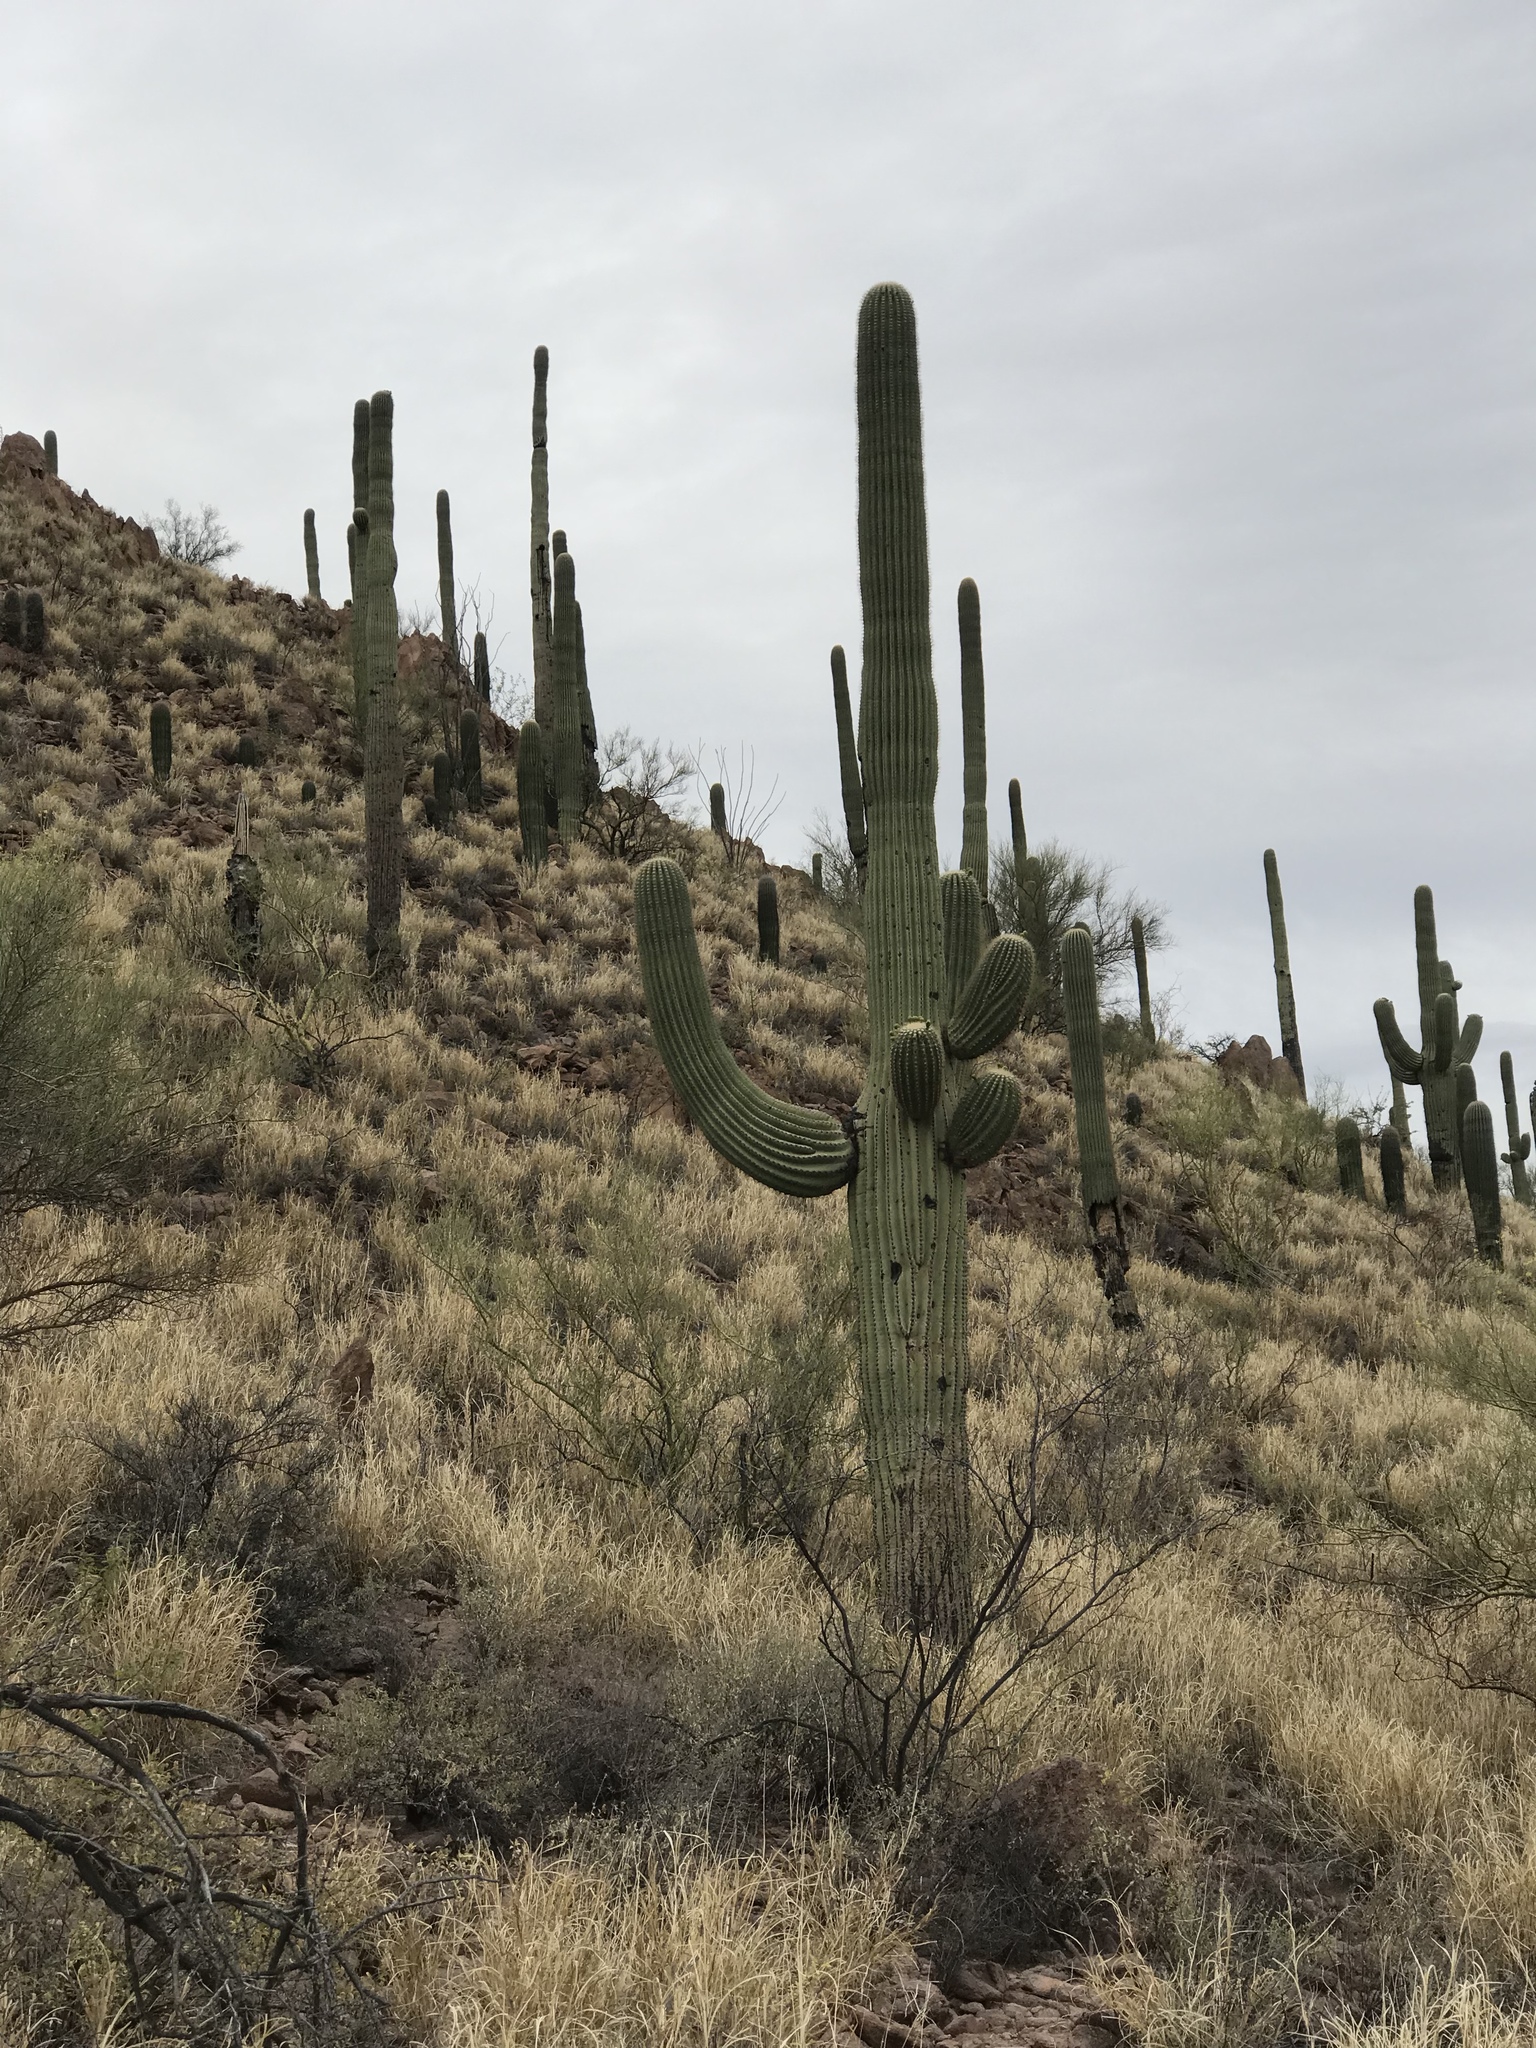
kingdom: Plantae
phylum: Tracheophyta
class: Magnoliopsida
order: Caryophyllales
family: Cactaceae
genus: Carnegiea
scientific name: Carnegiea gigantea
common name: Saguaro
